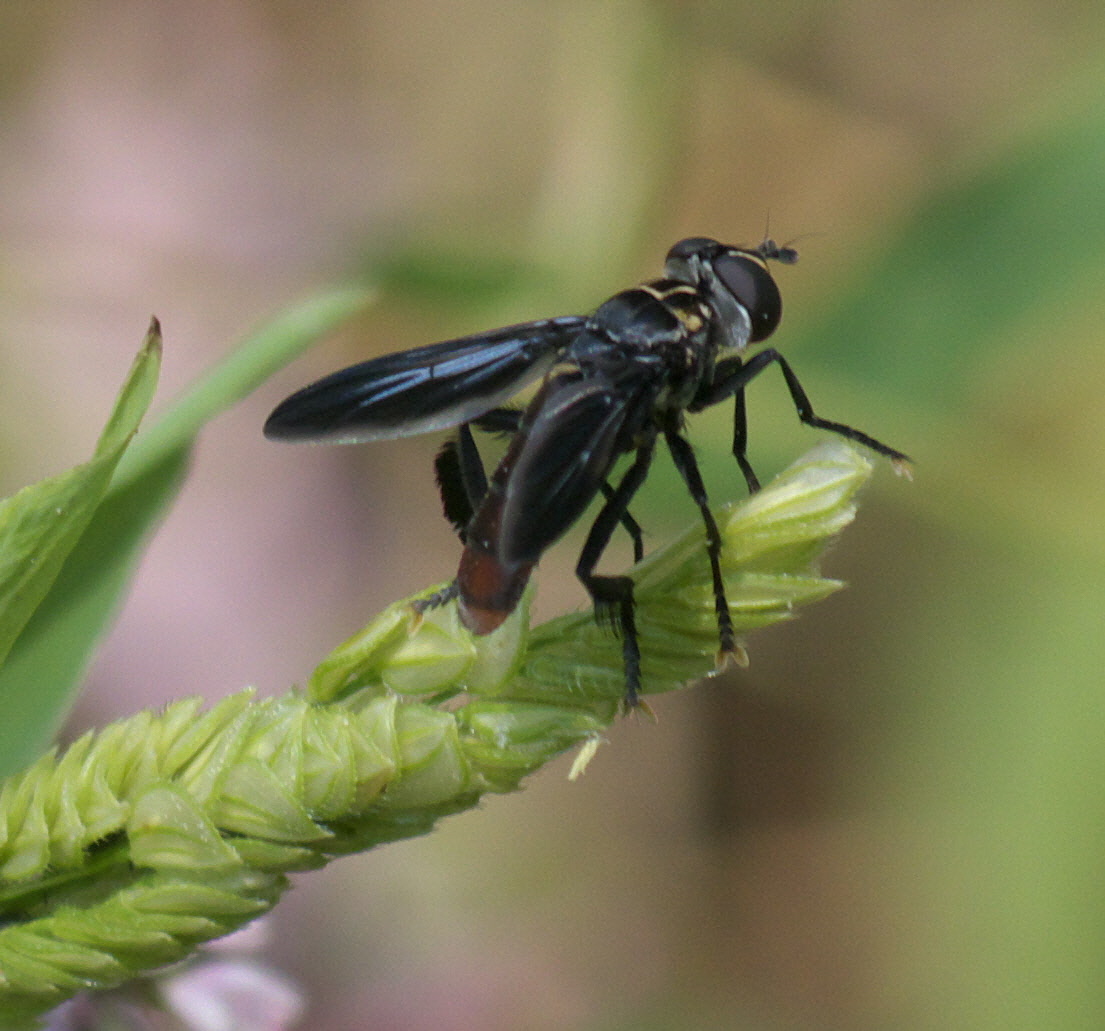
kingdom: Animalia
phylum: Arthropoda
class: Insecta
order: Diptera
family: Tachinidae
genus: Trichopoda
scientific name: Trichopoda lanipes
